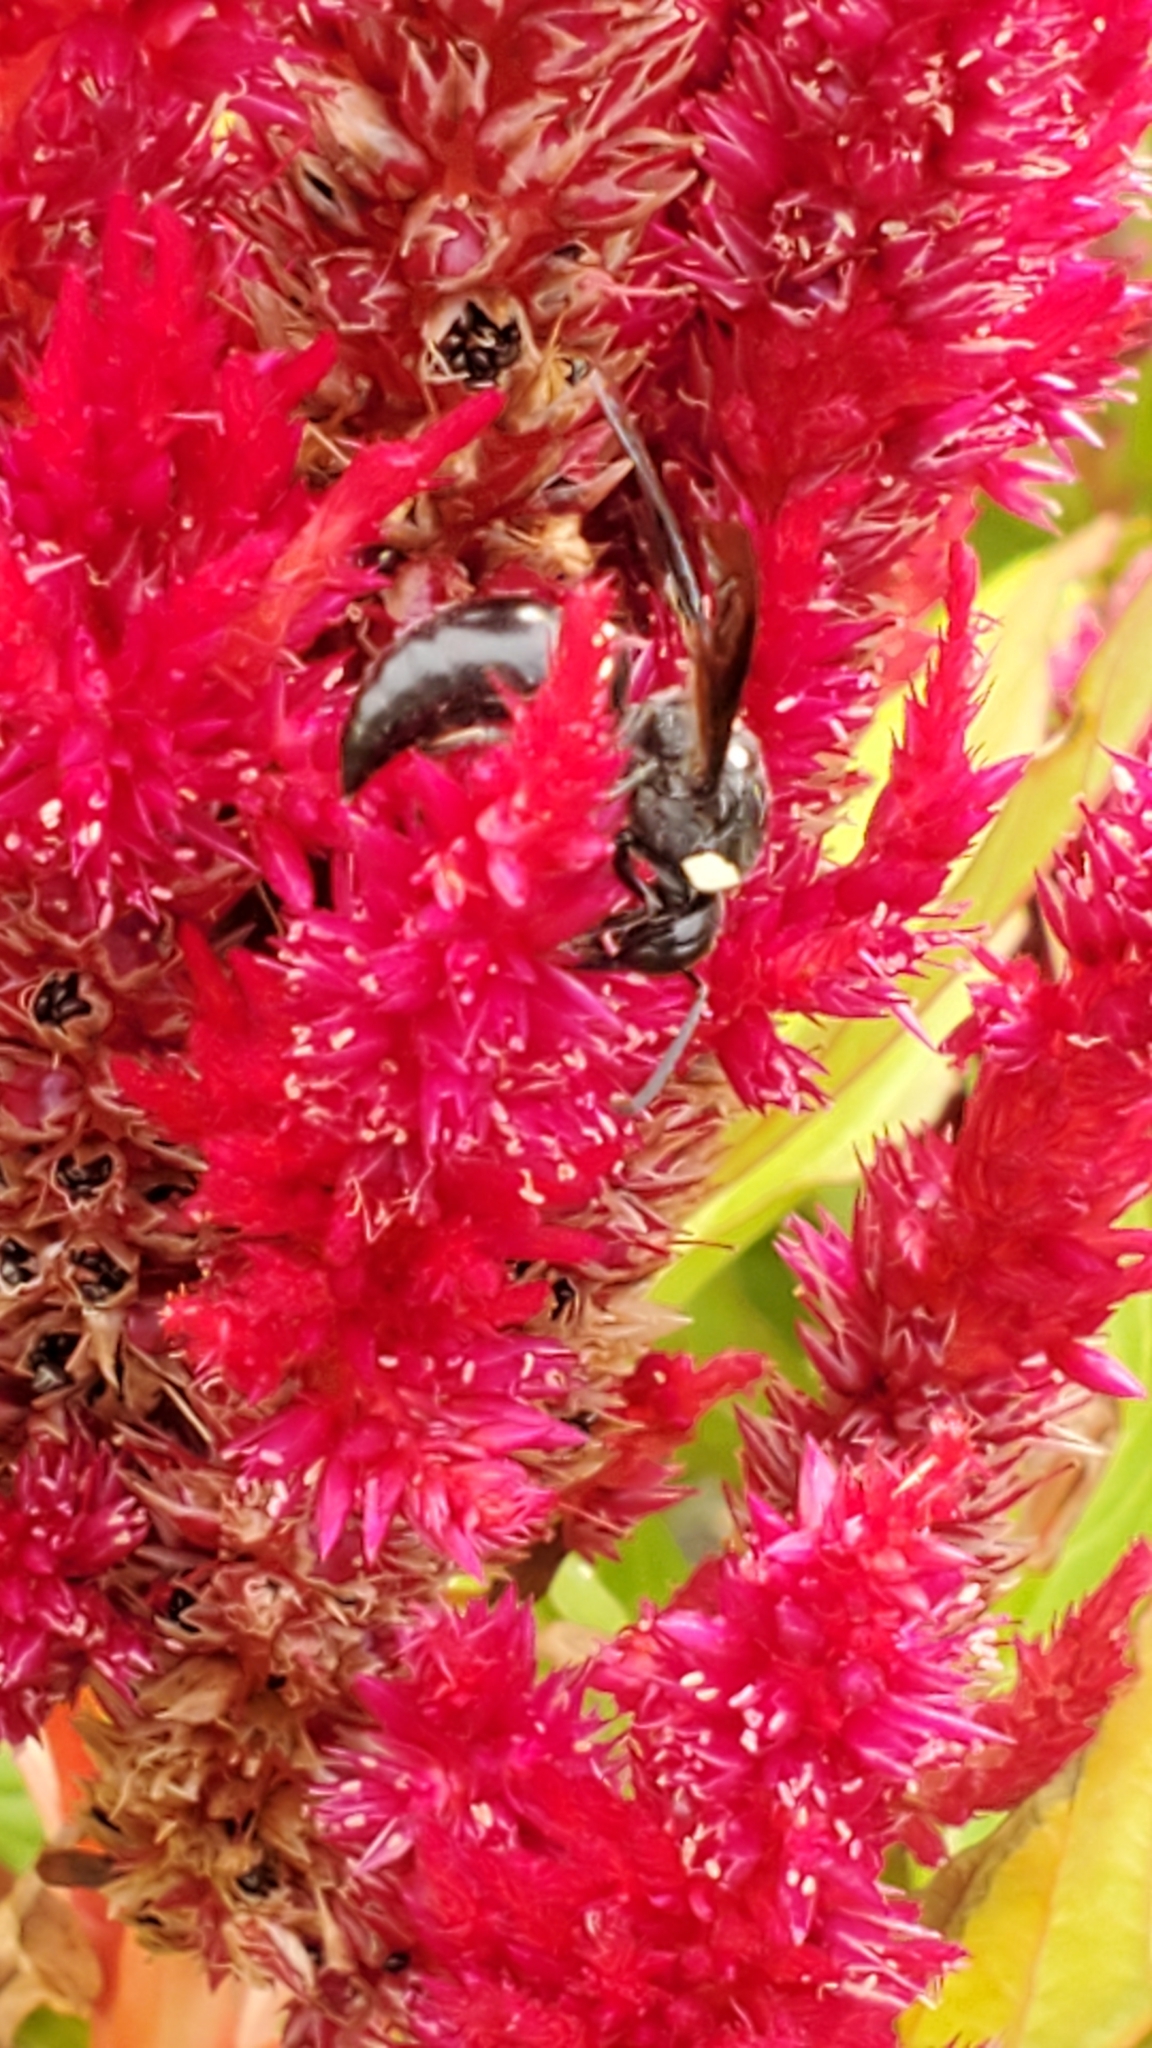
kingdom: Animalia
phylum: Arthropoda
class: Insecta
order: Hymenoptera
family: Eumenidae
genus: Monobia
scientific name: Monobia quadridens
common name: Four-toothed mason wasp
